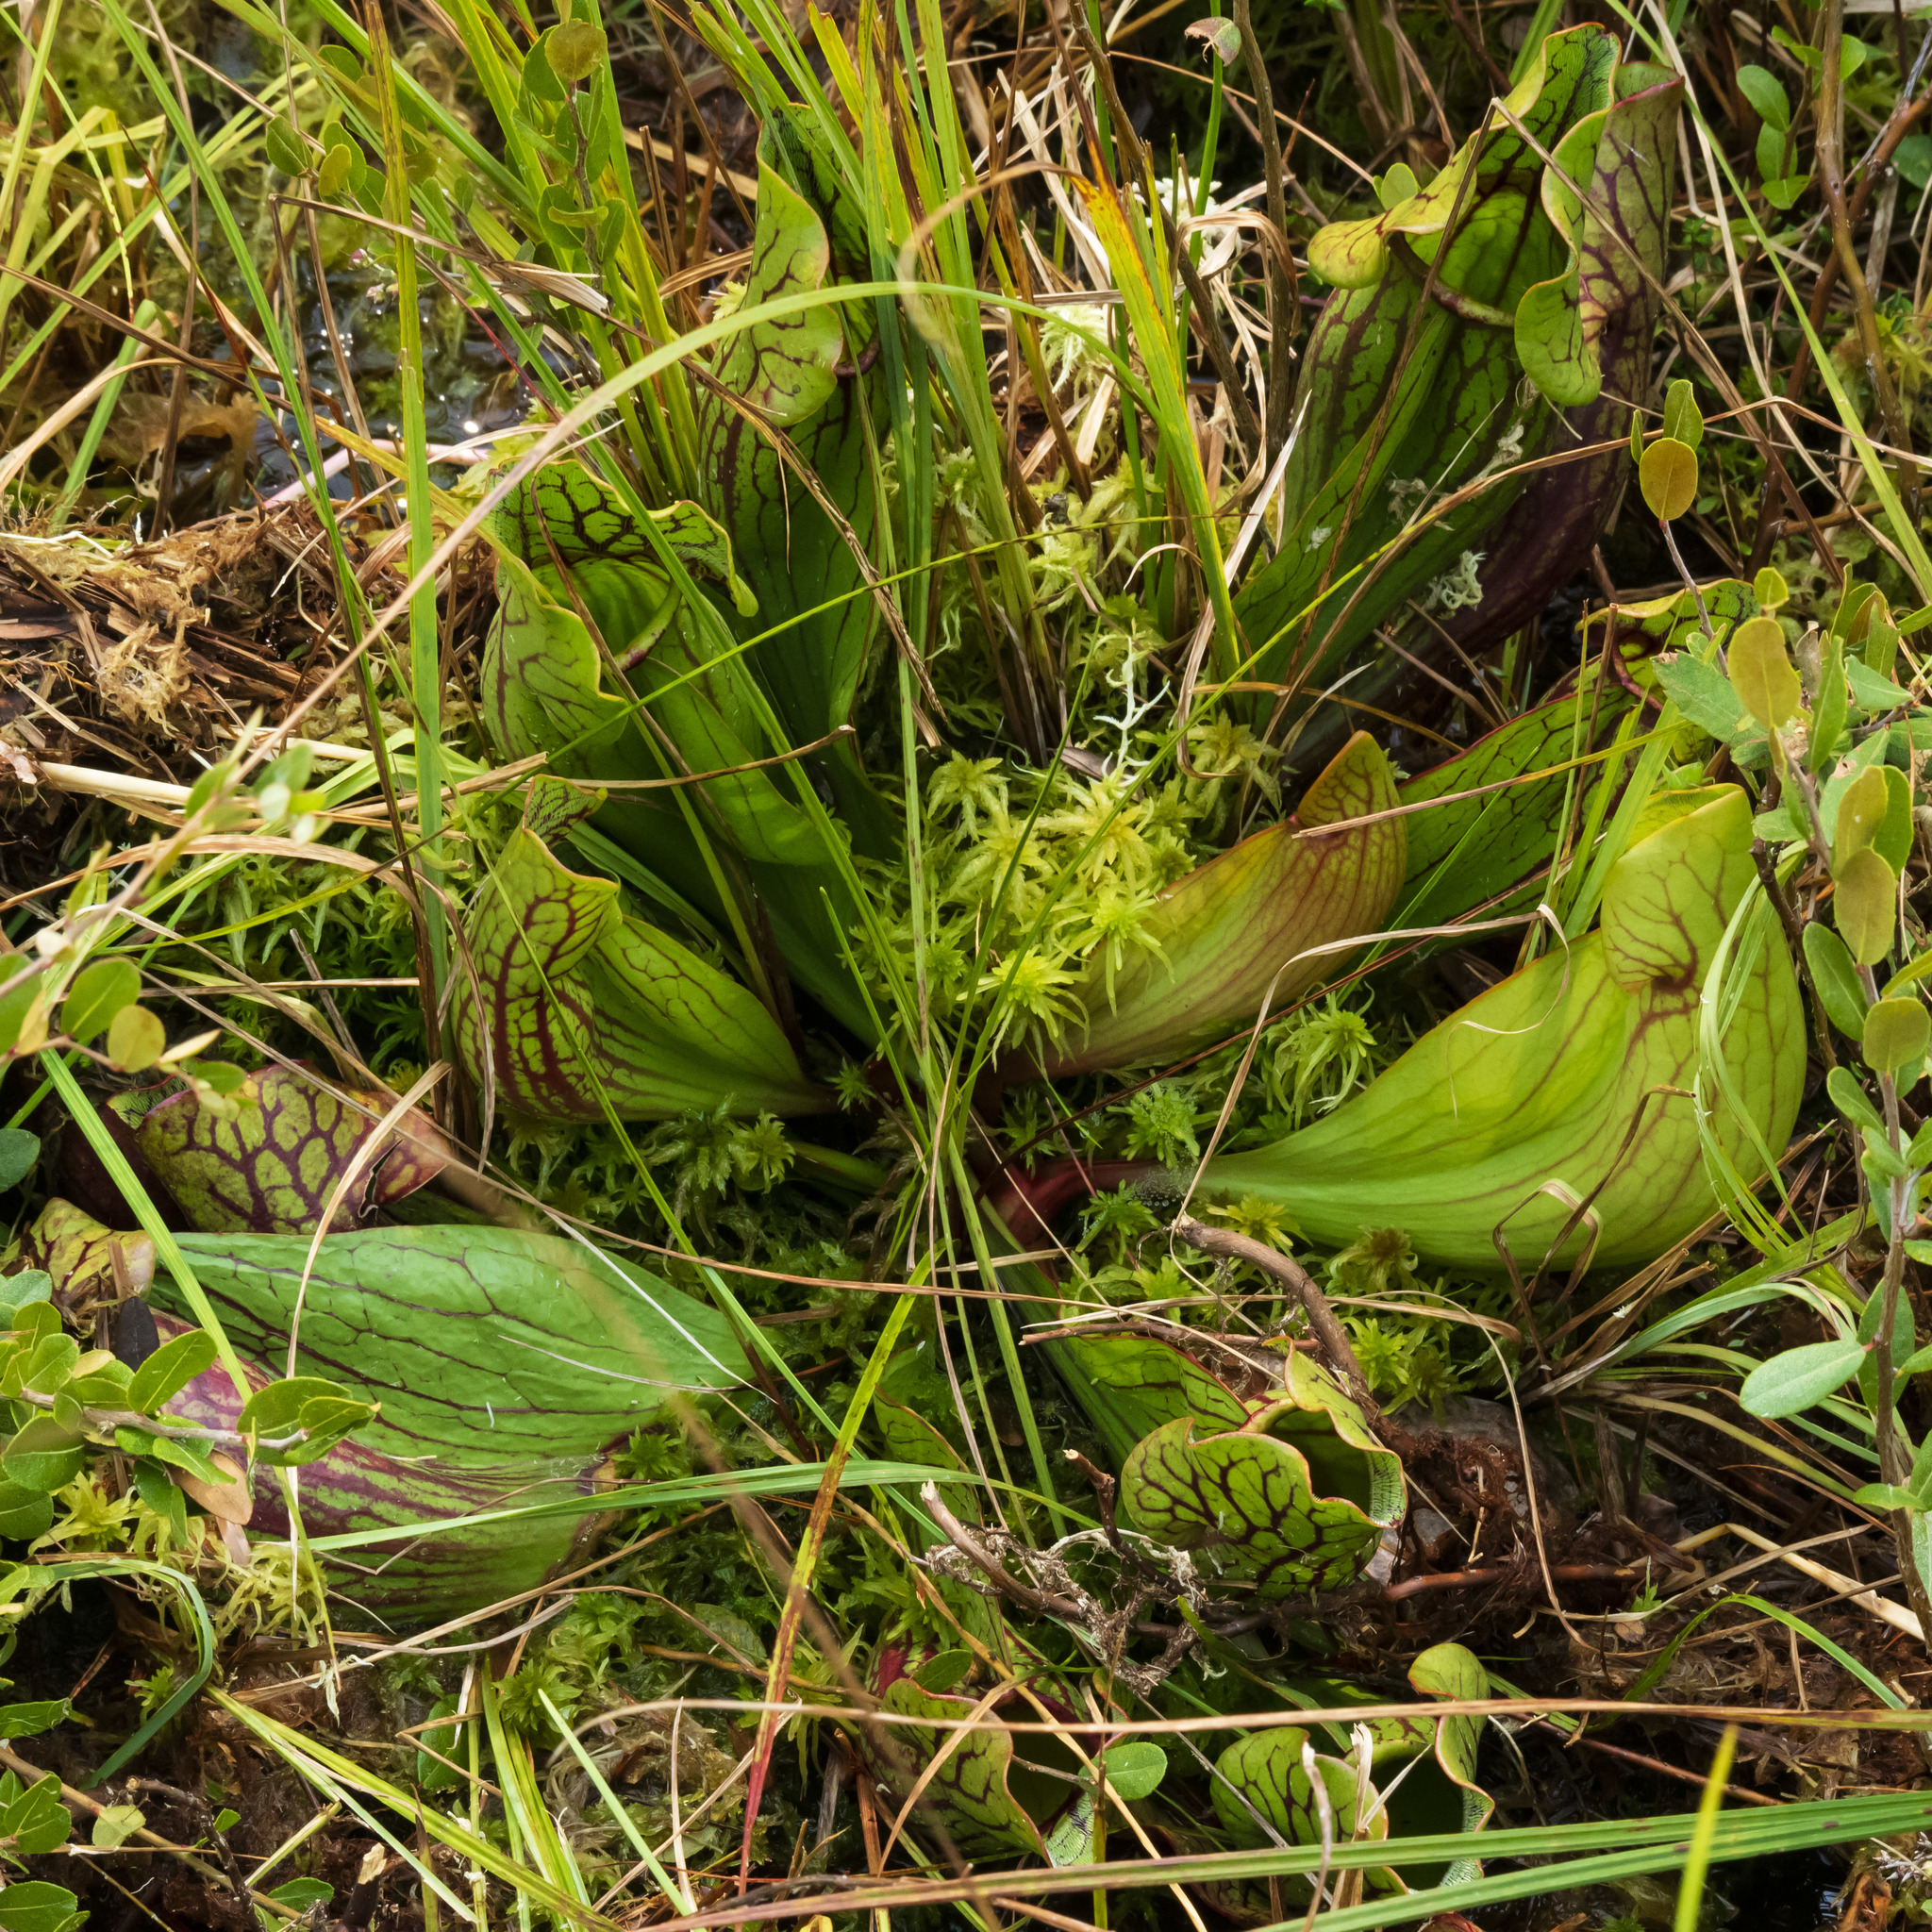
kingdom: Plantae
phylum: Tracheophyta
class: Magnoliopsida
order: Ericales
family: Sarraceniaceae
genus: Sarracenia
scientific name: Sarracenia purpurea
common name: Pitcherplant
